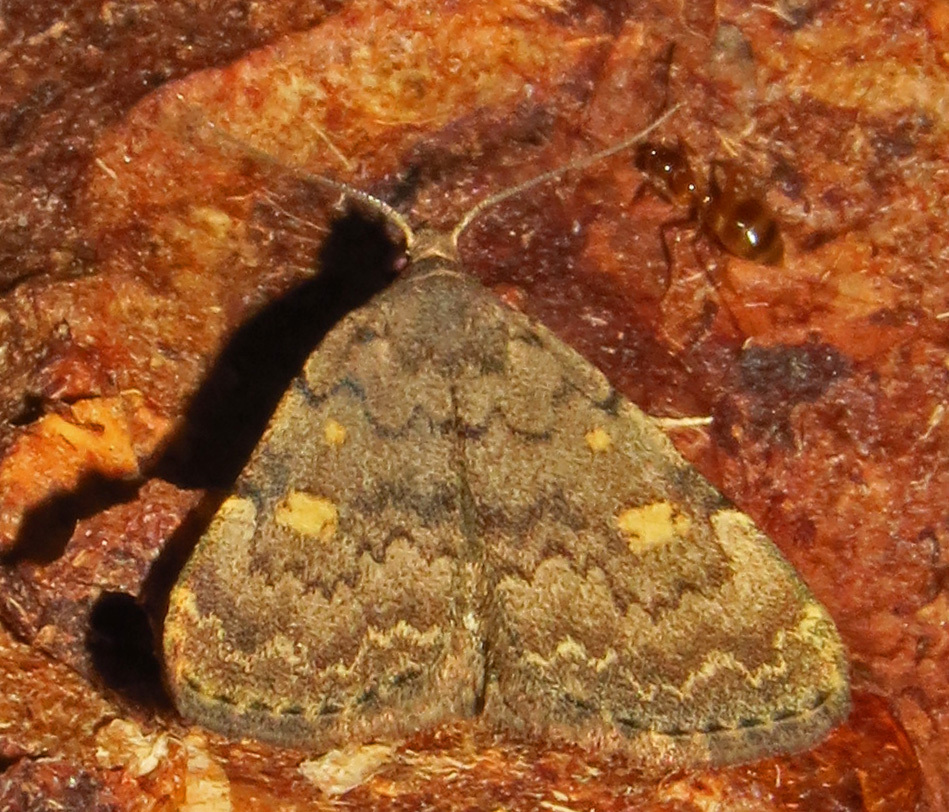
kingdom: Animalia
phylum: Arthropoda
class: Insecta
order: Lepidoptera
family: Erebidae
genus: Idia
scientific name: Idia aemula
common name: Common idia moth
